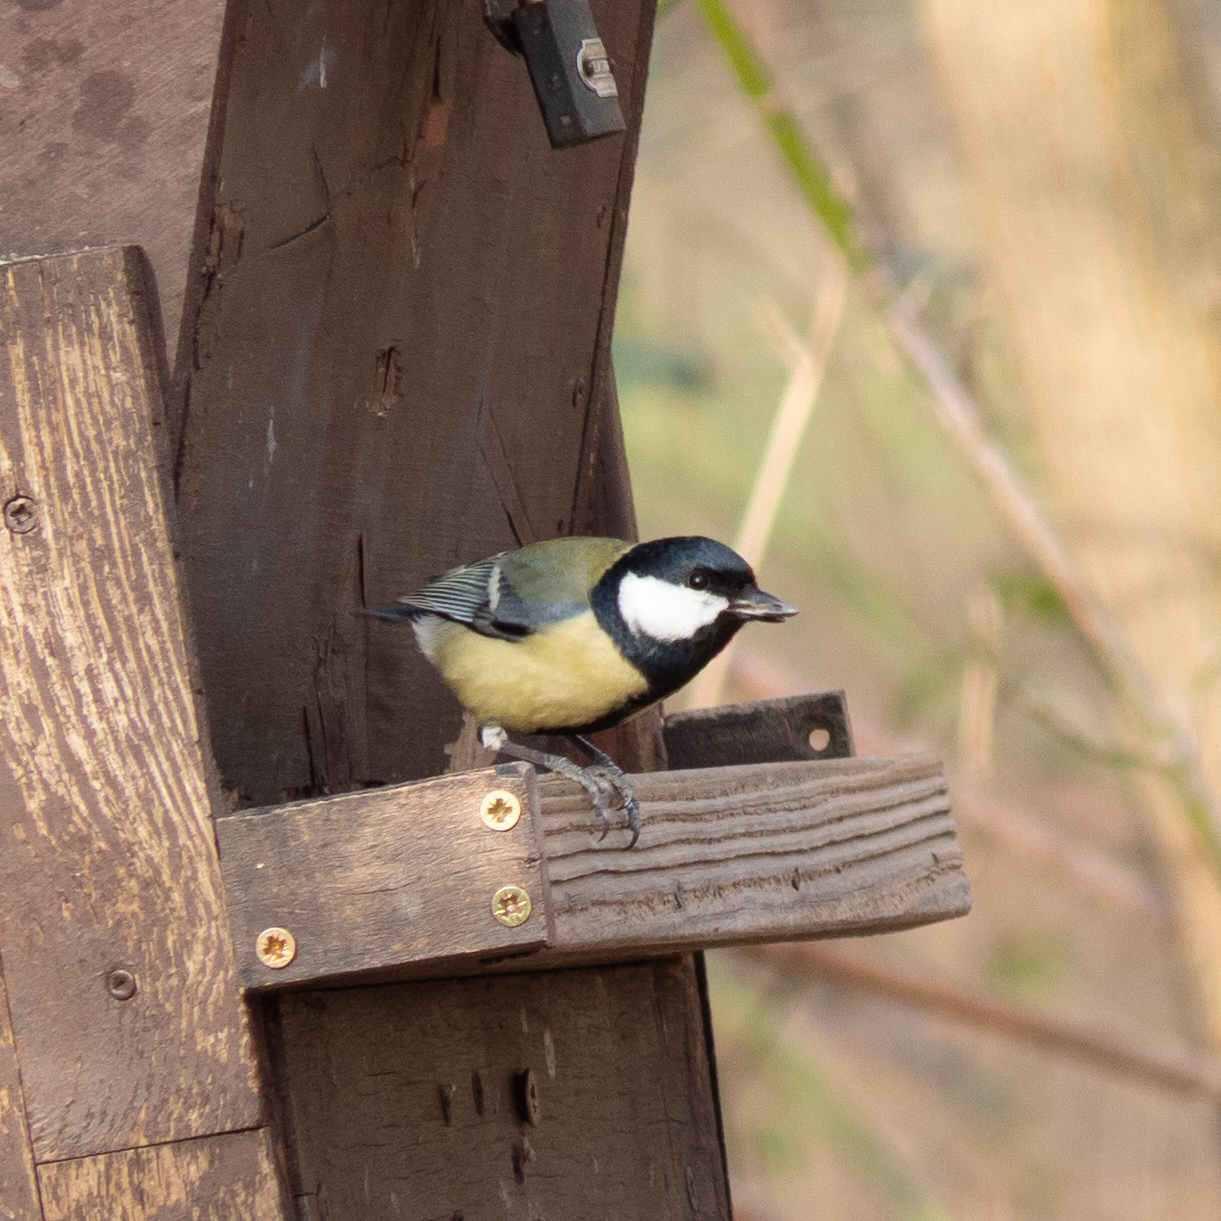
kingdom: Animalia
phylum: Chordata
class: Aves
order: Passeriformes
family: Paridae
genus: Parus
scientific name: Parus major
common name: Great tit
